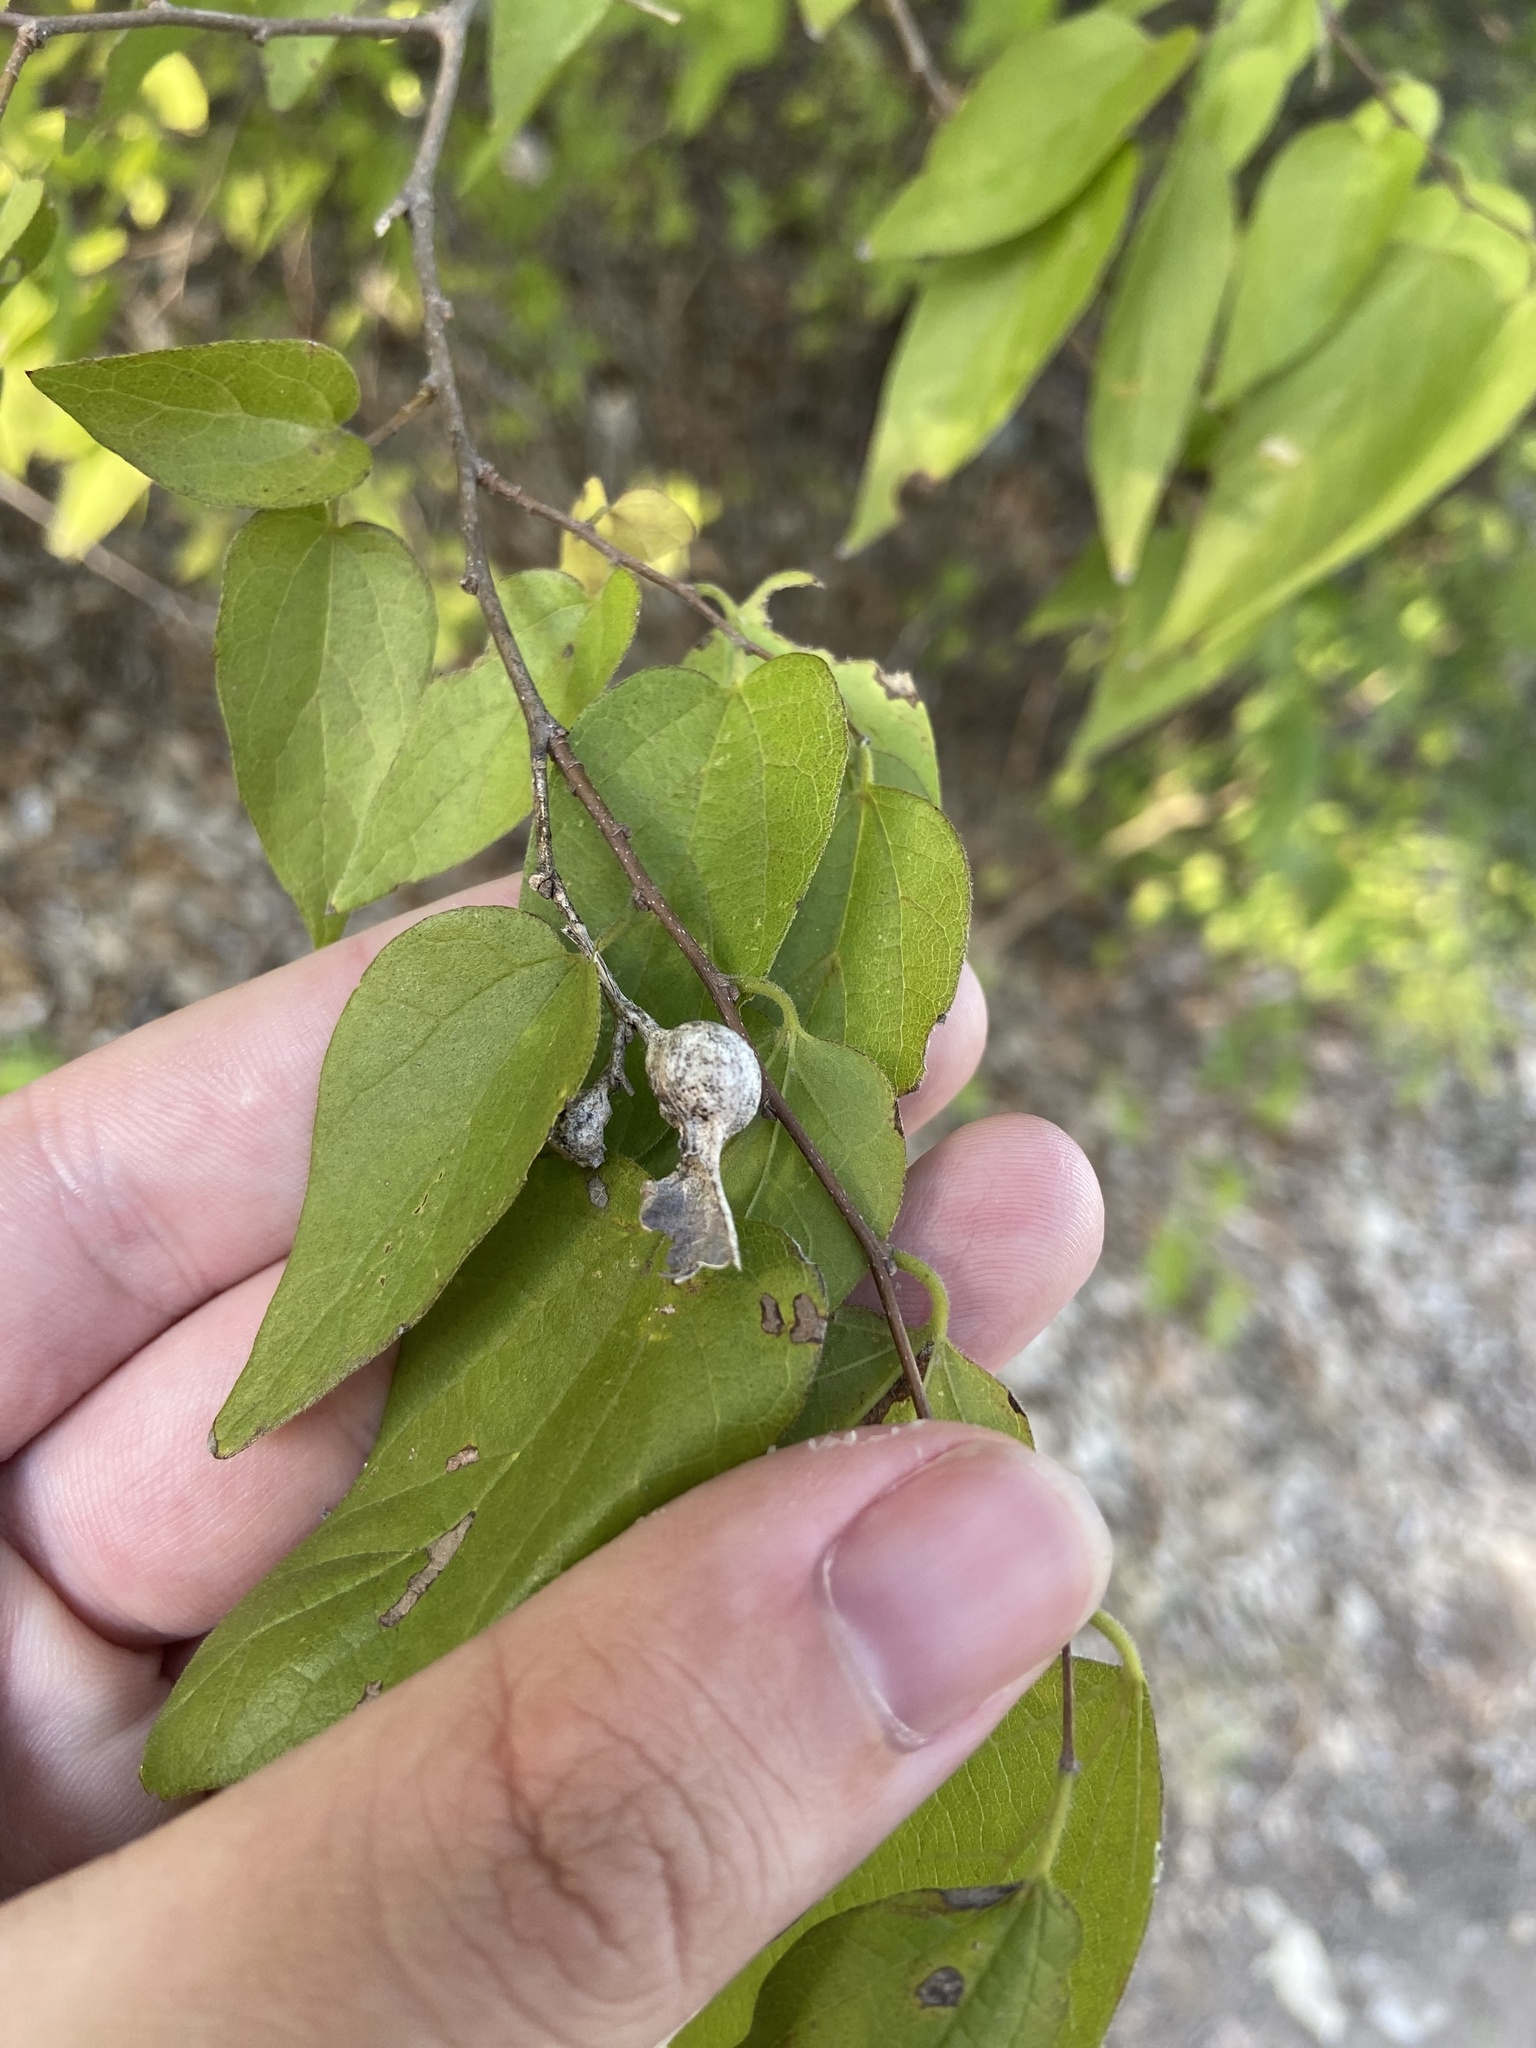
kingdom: Animalia
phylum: Arthropoda
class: Insecta
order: Hemiptera
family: Aphalaridae
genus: Pachypsylla
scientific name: Pachypsylla venusta
